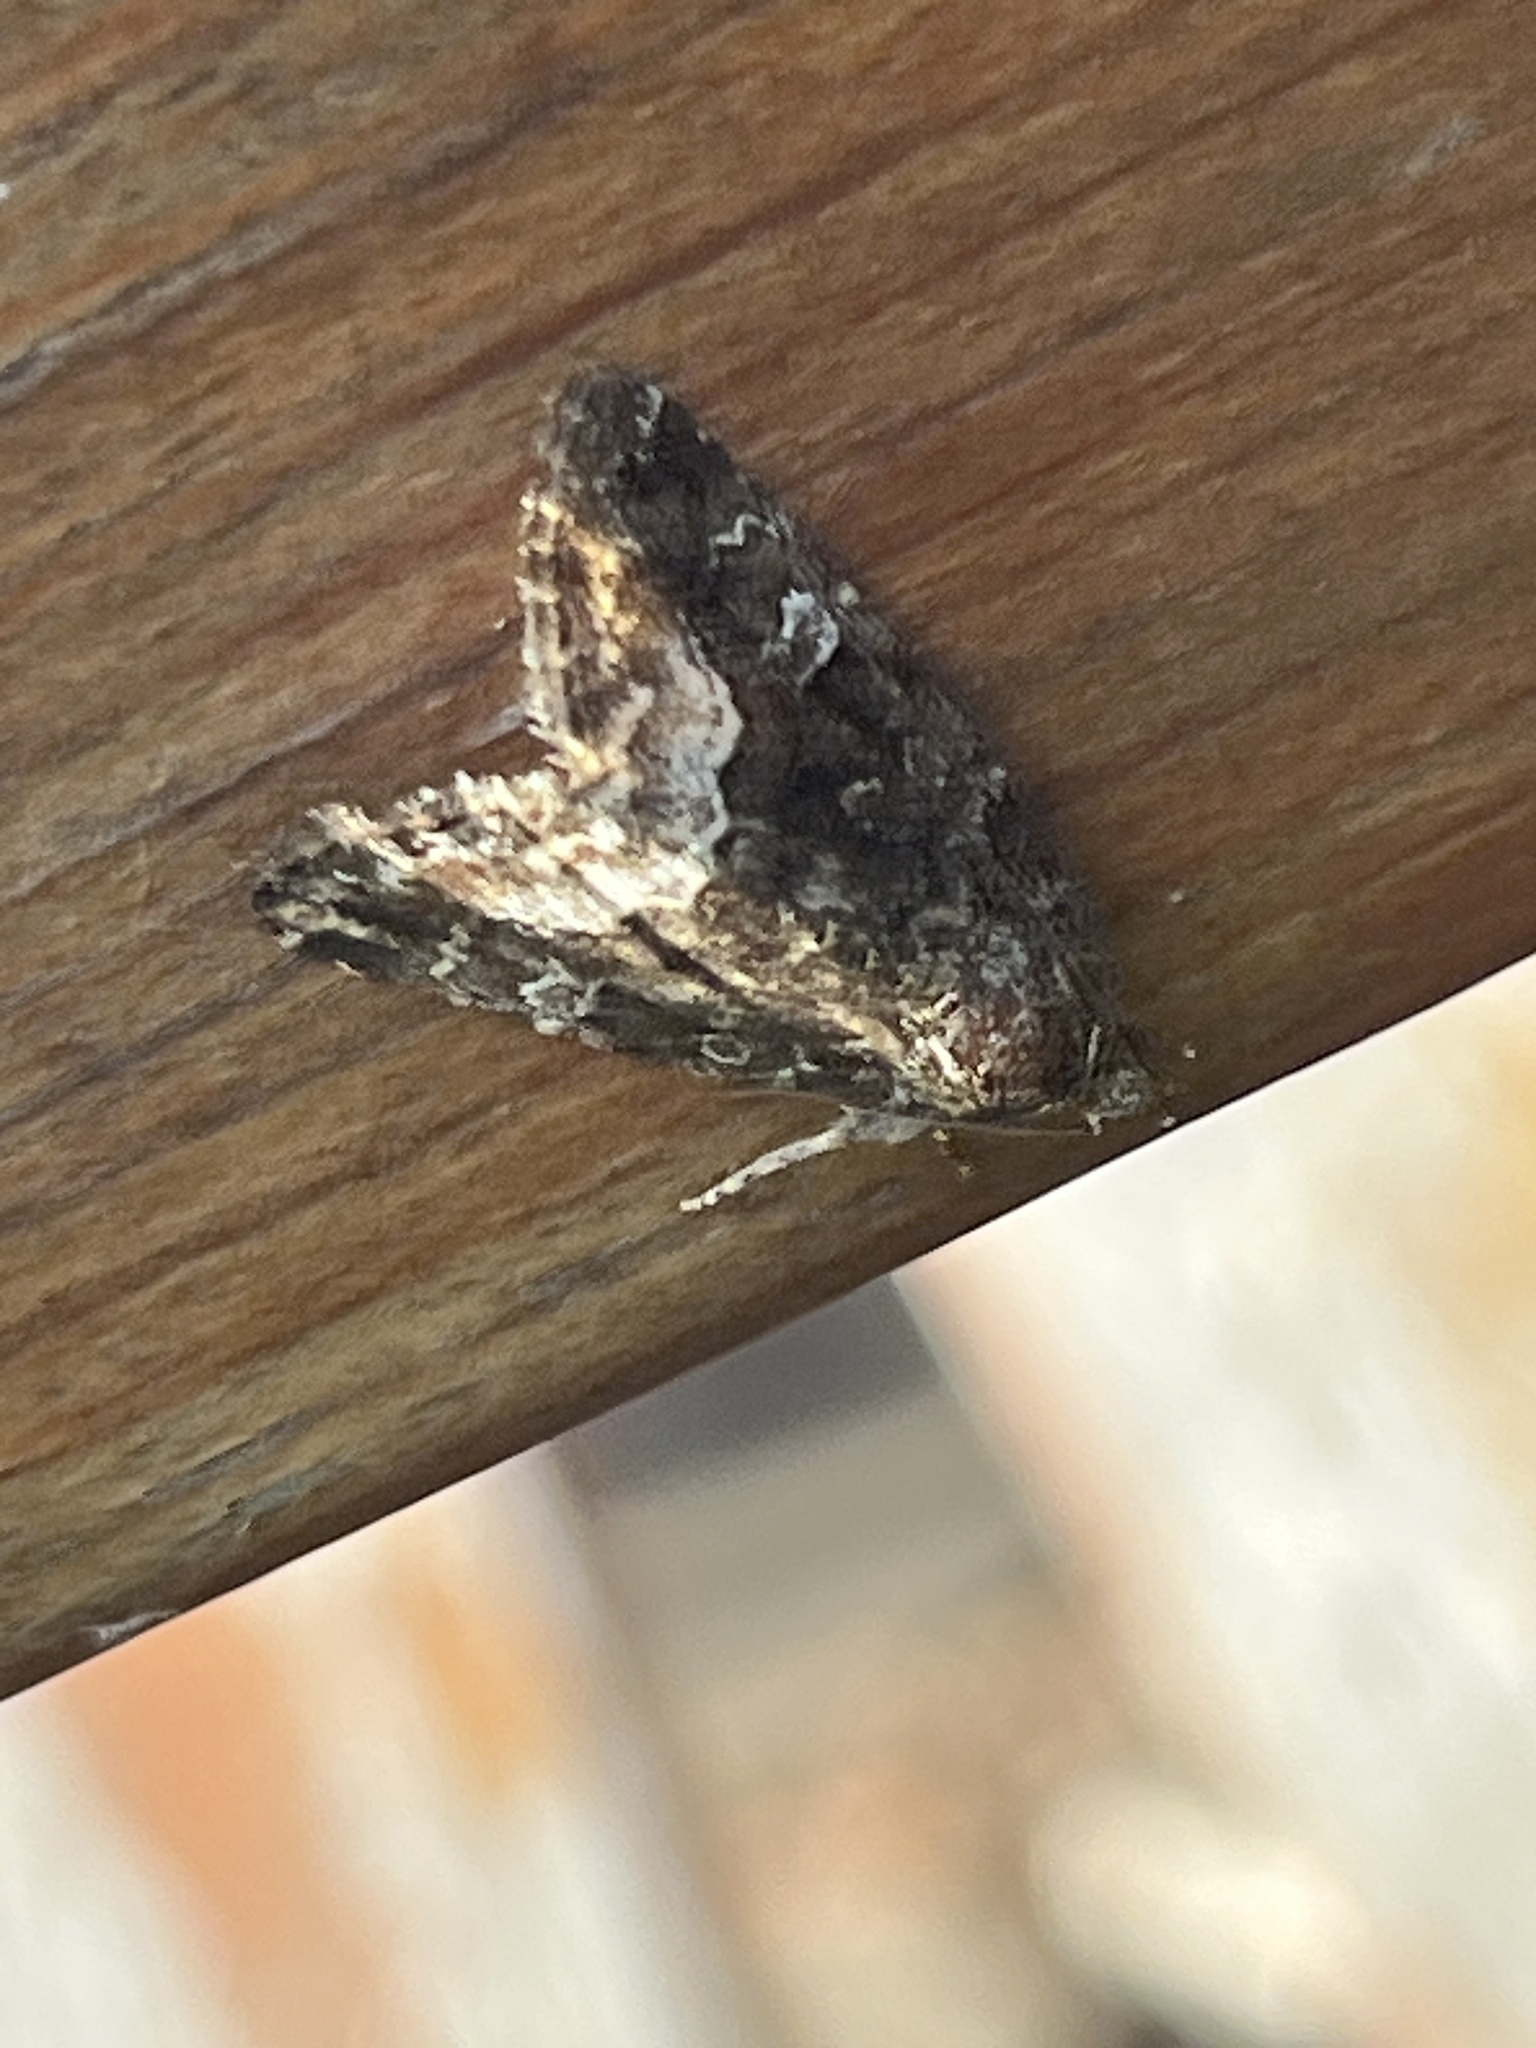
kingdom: Animalia
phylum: Arthropoda
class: Insecta
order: Lepidoptera
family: Noctuidae
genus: Deltote
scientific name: Deltote pygarga
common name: Marbled white spot
